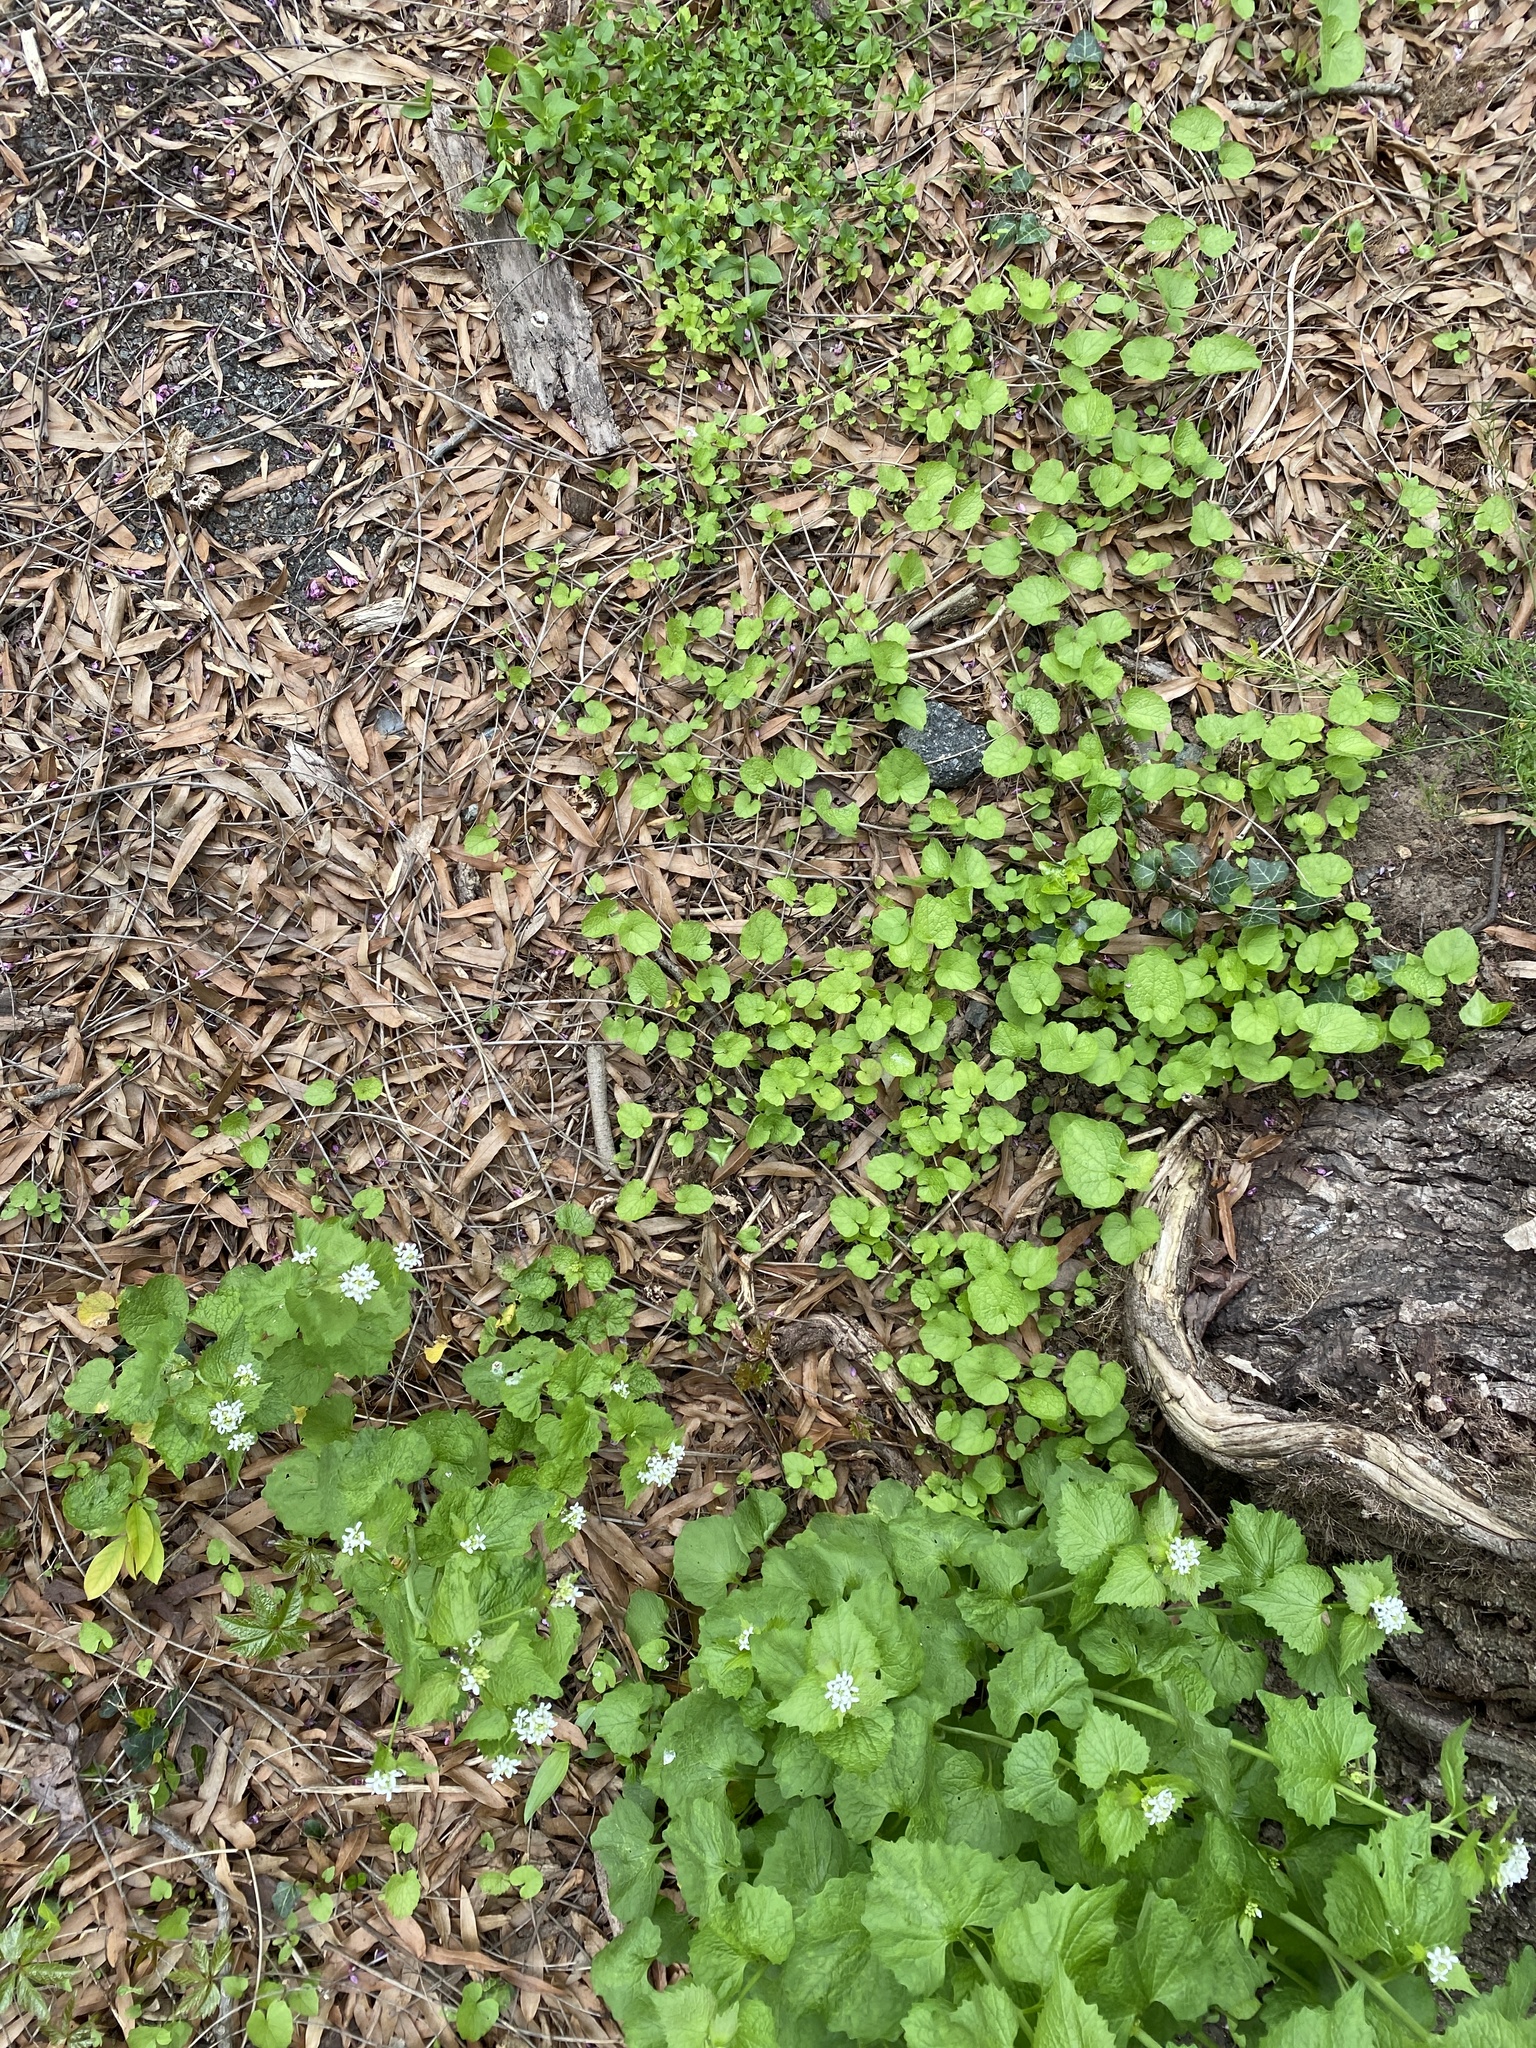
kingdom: Plantae
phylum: Tracheophyta
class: Magnoliopsida
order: Brassicales
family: Brassicaceae
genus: Alliaria
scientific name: Alliaria petiolata
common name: Garlic mustard
